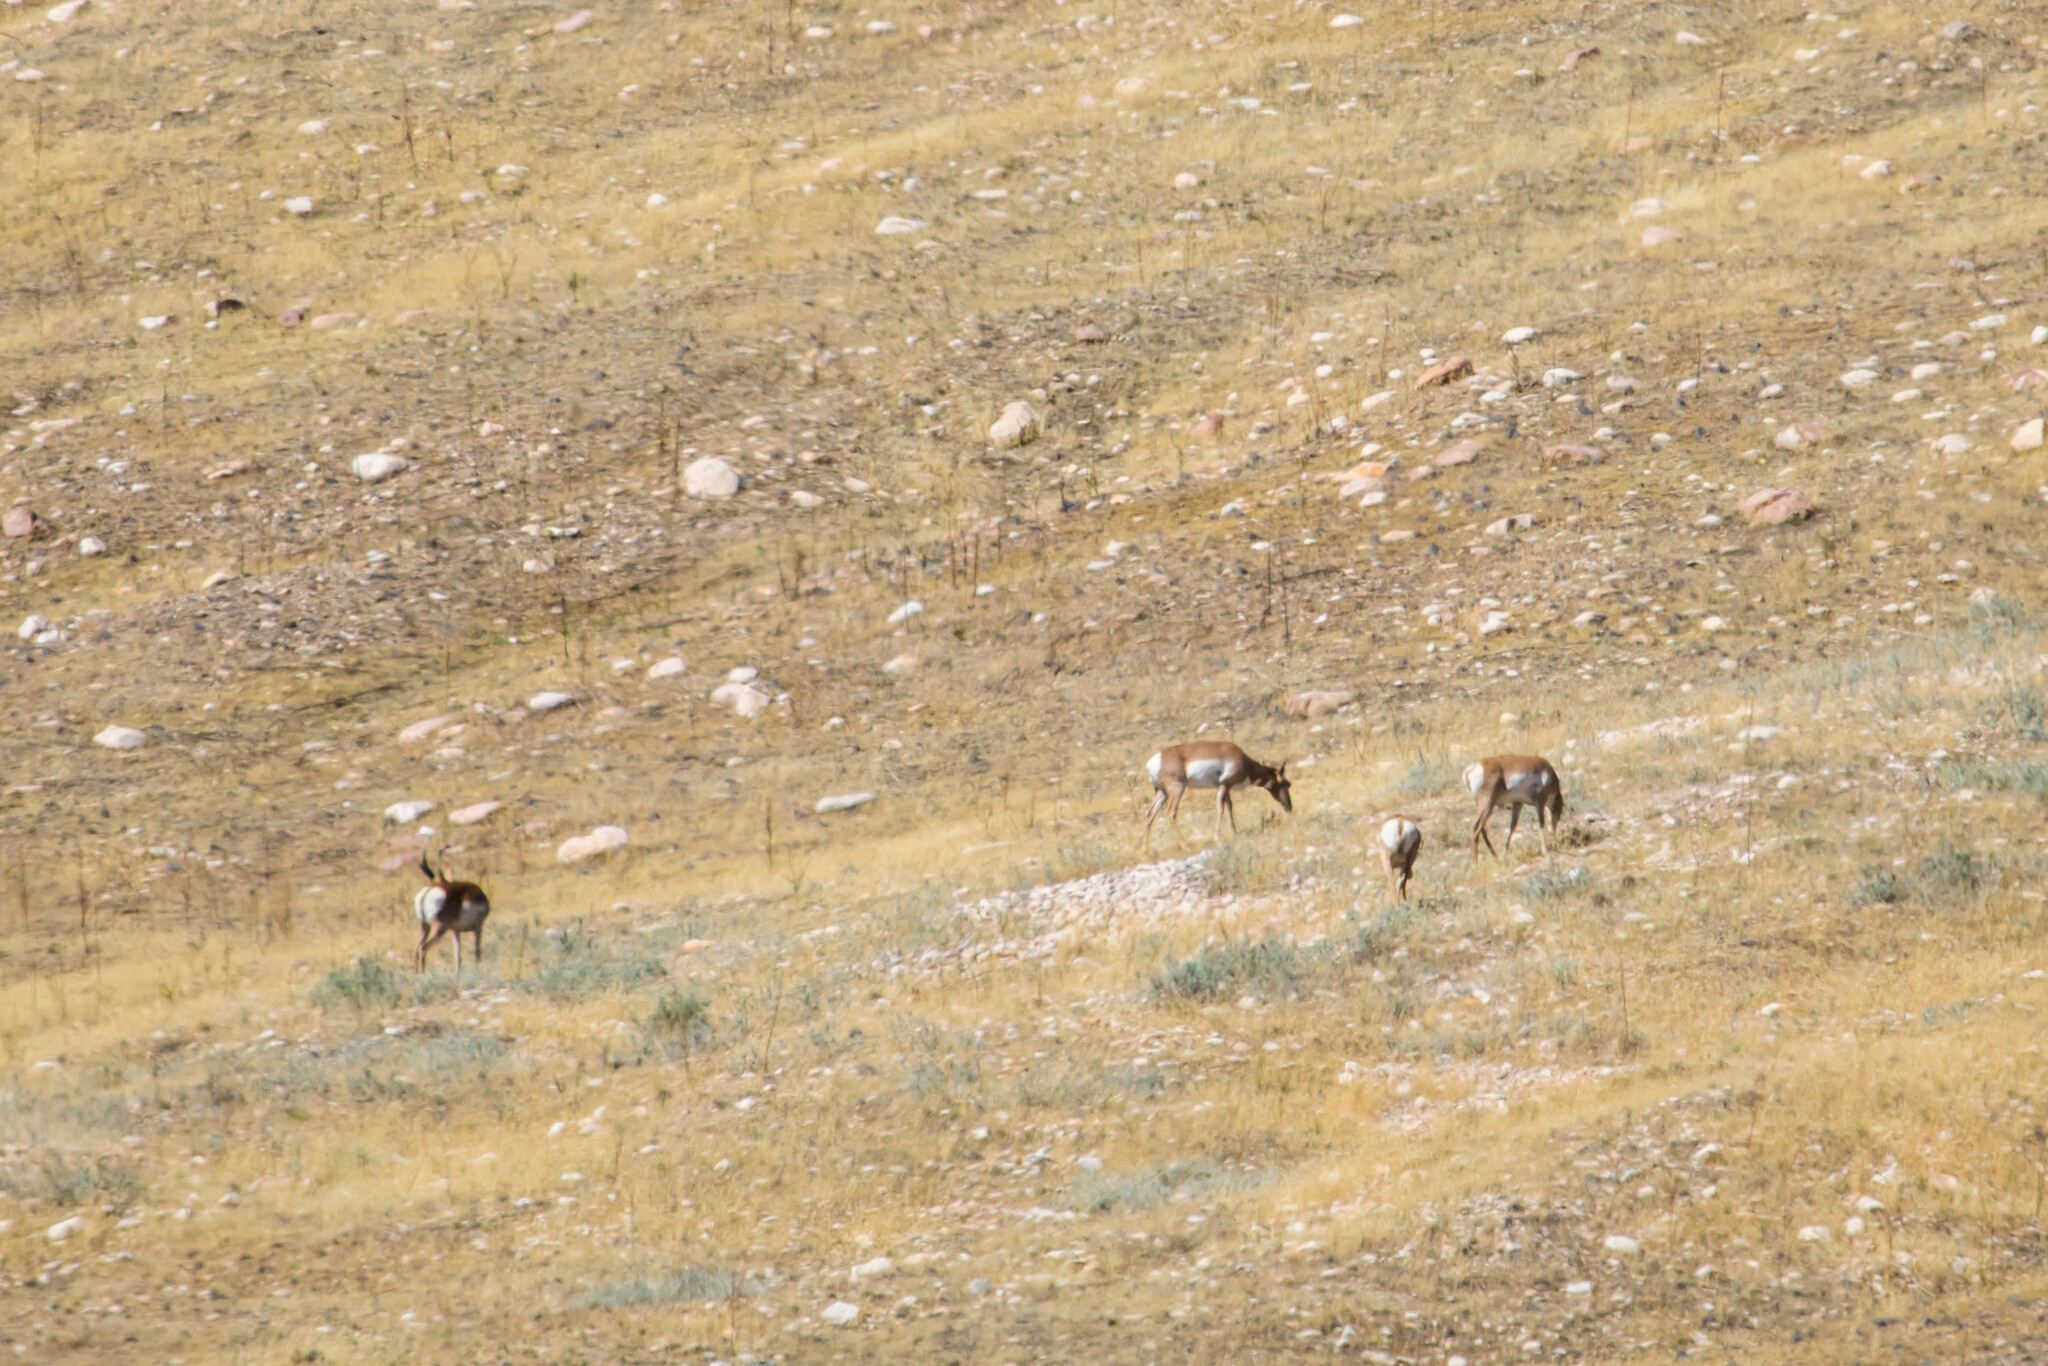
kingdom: Animalia
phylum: Chordata
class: Mammalia
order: Artiodactyla
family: Antilocapridae
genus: Antilocapra
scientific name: Antilocapra americana
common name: Pronghorn
